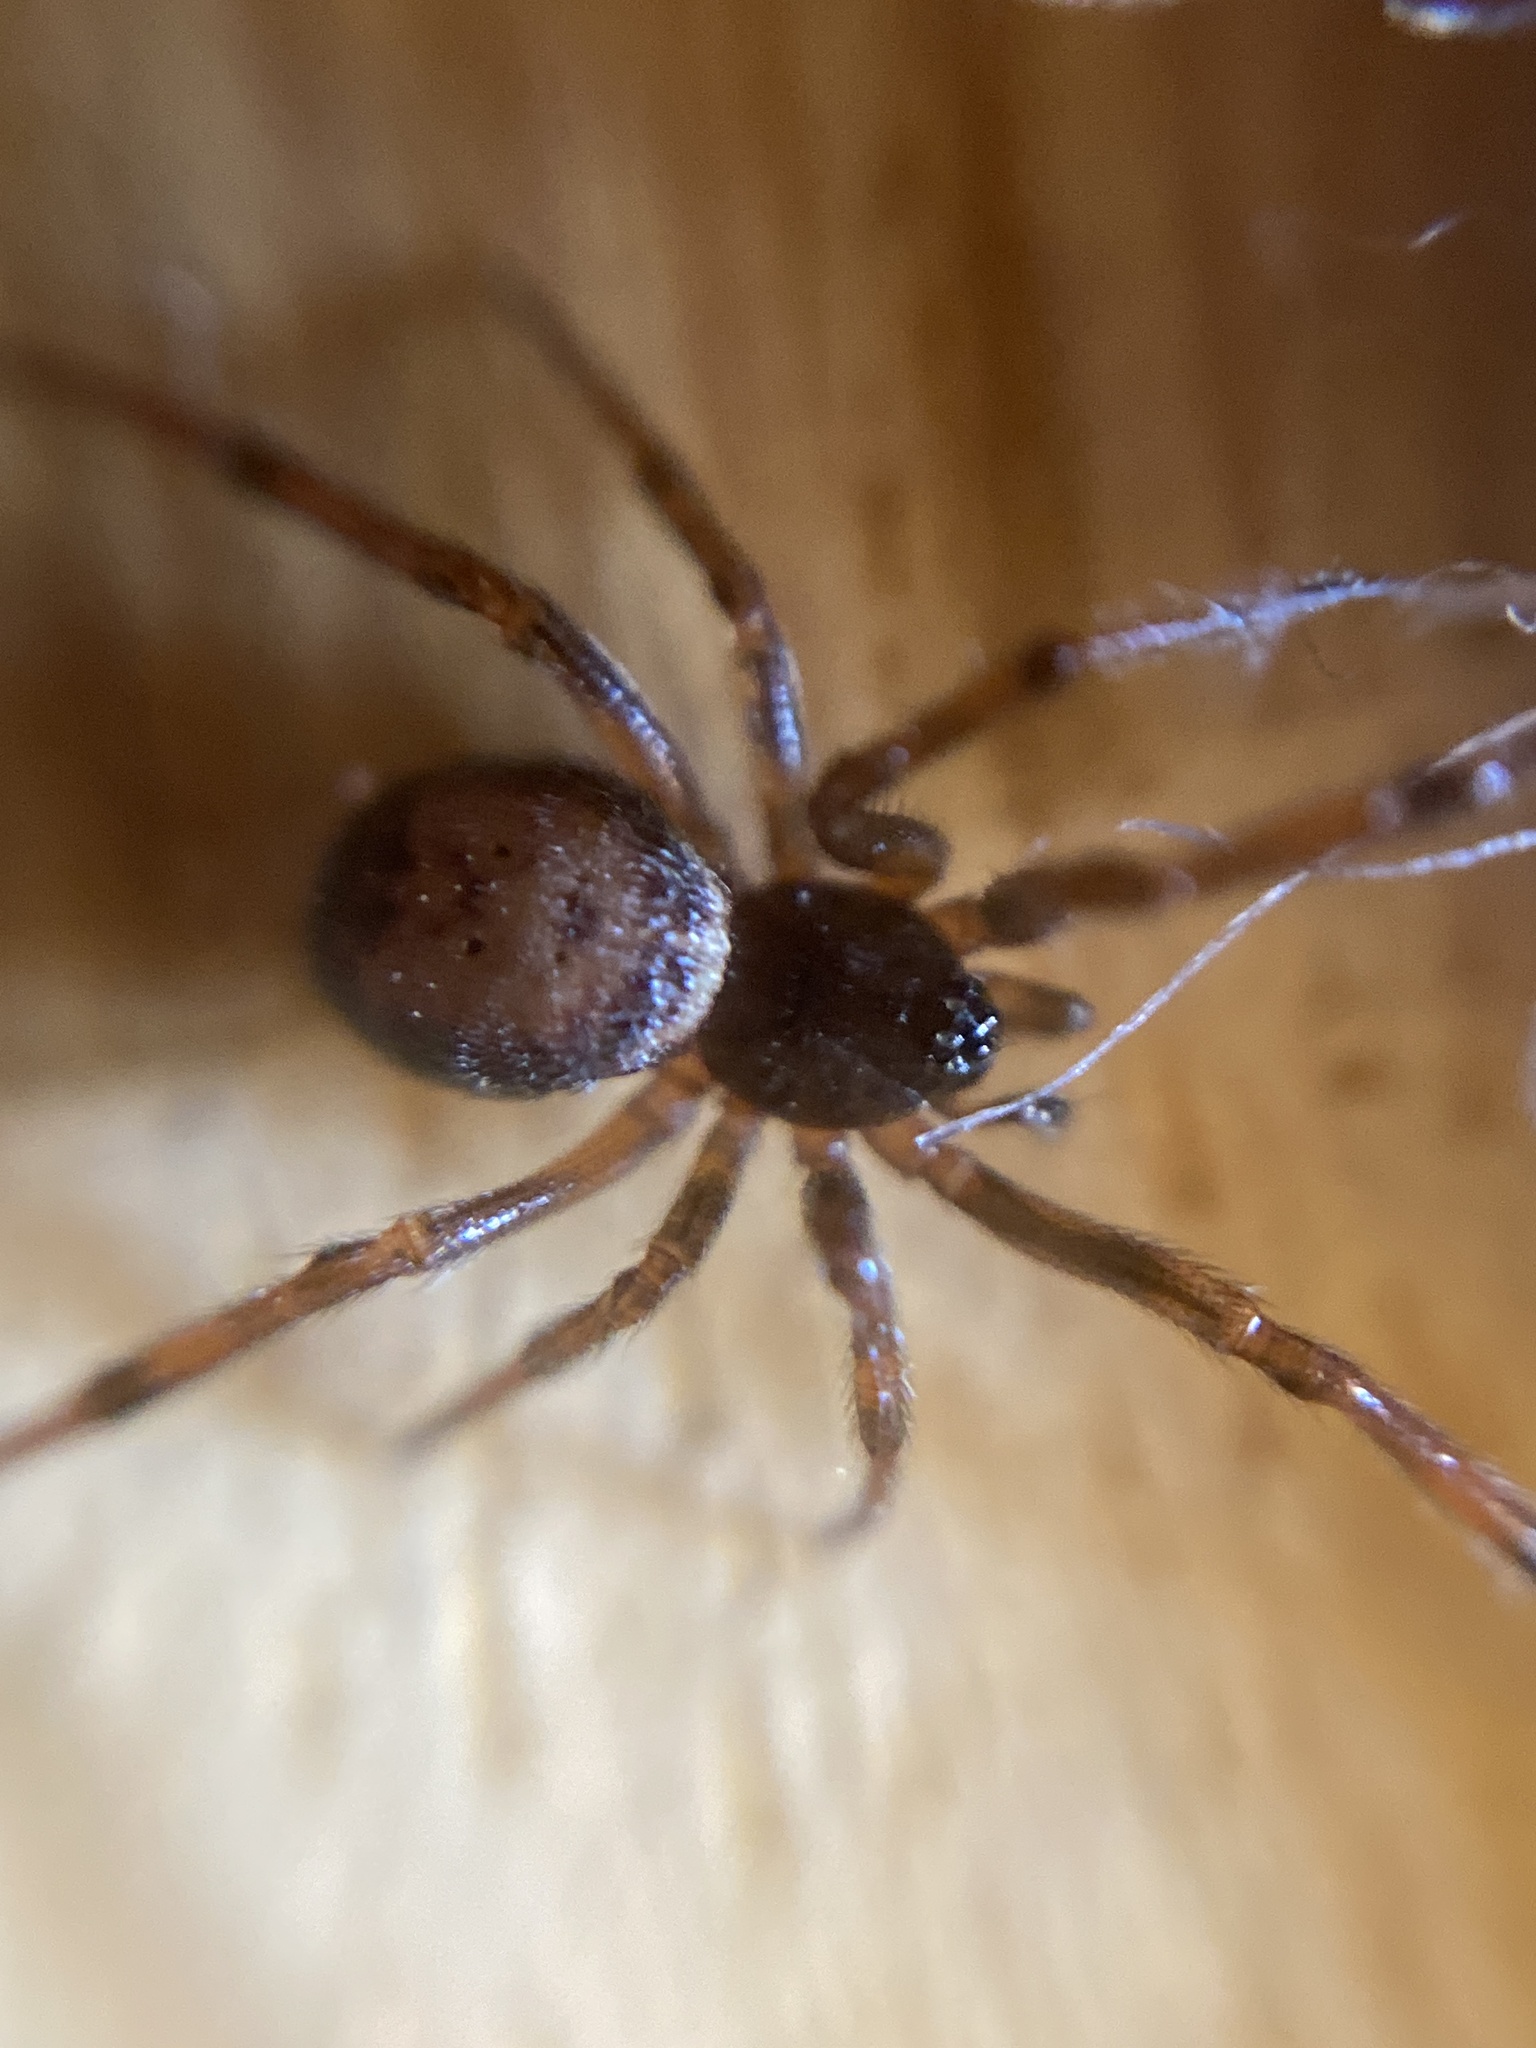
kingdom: Animalia
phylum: Arthropoda
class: Arachnida
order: Araneae
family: Theridiidae
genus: Steatoda
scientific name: Steatoda bipunctata
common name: False widow
